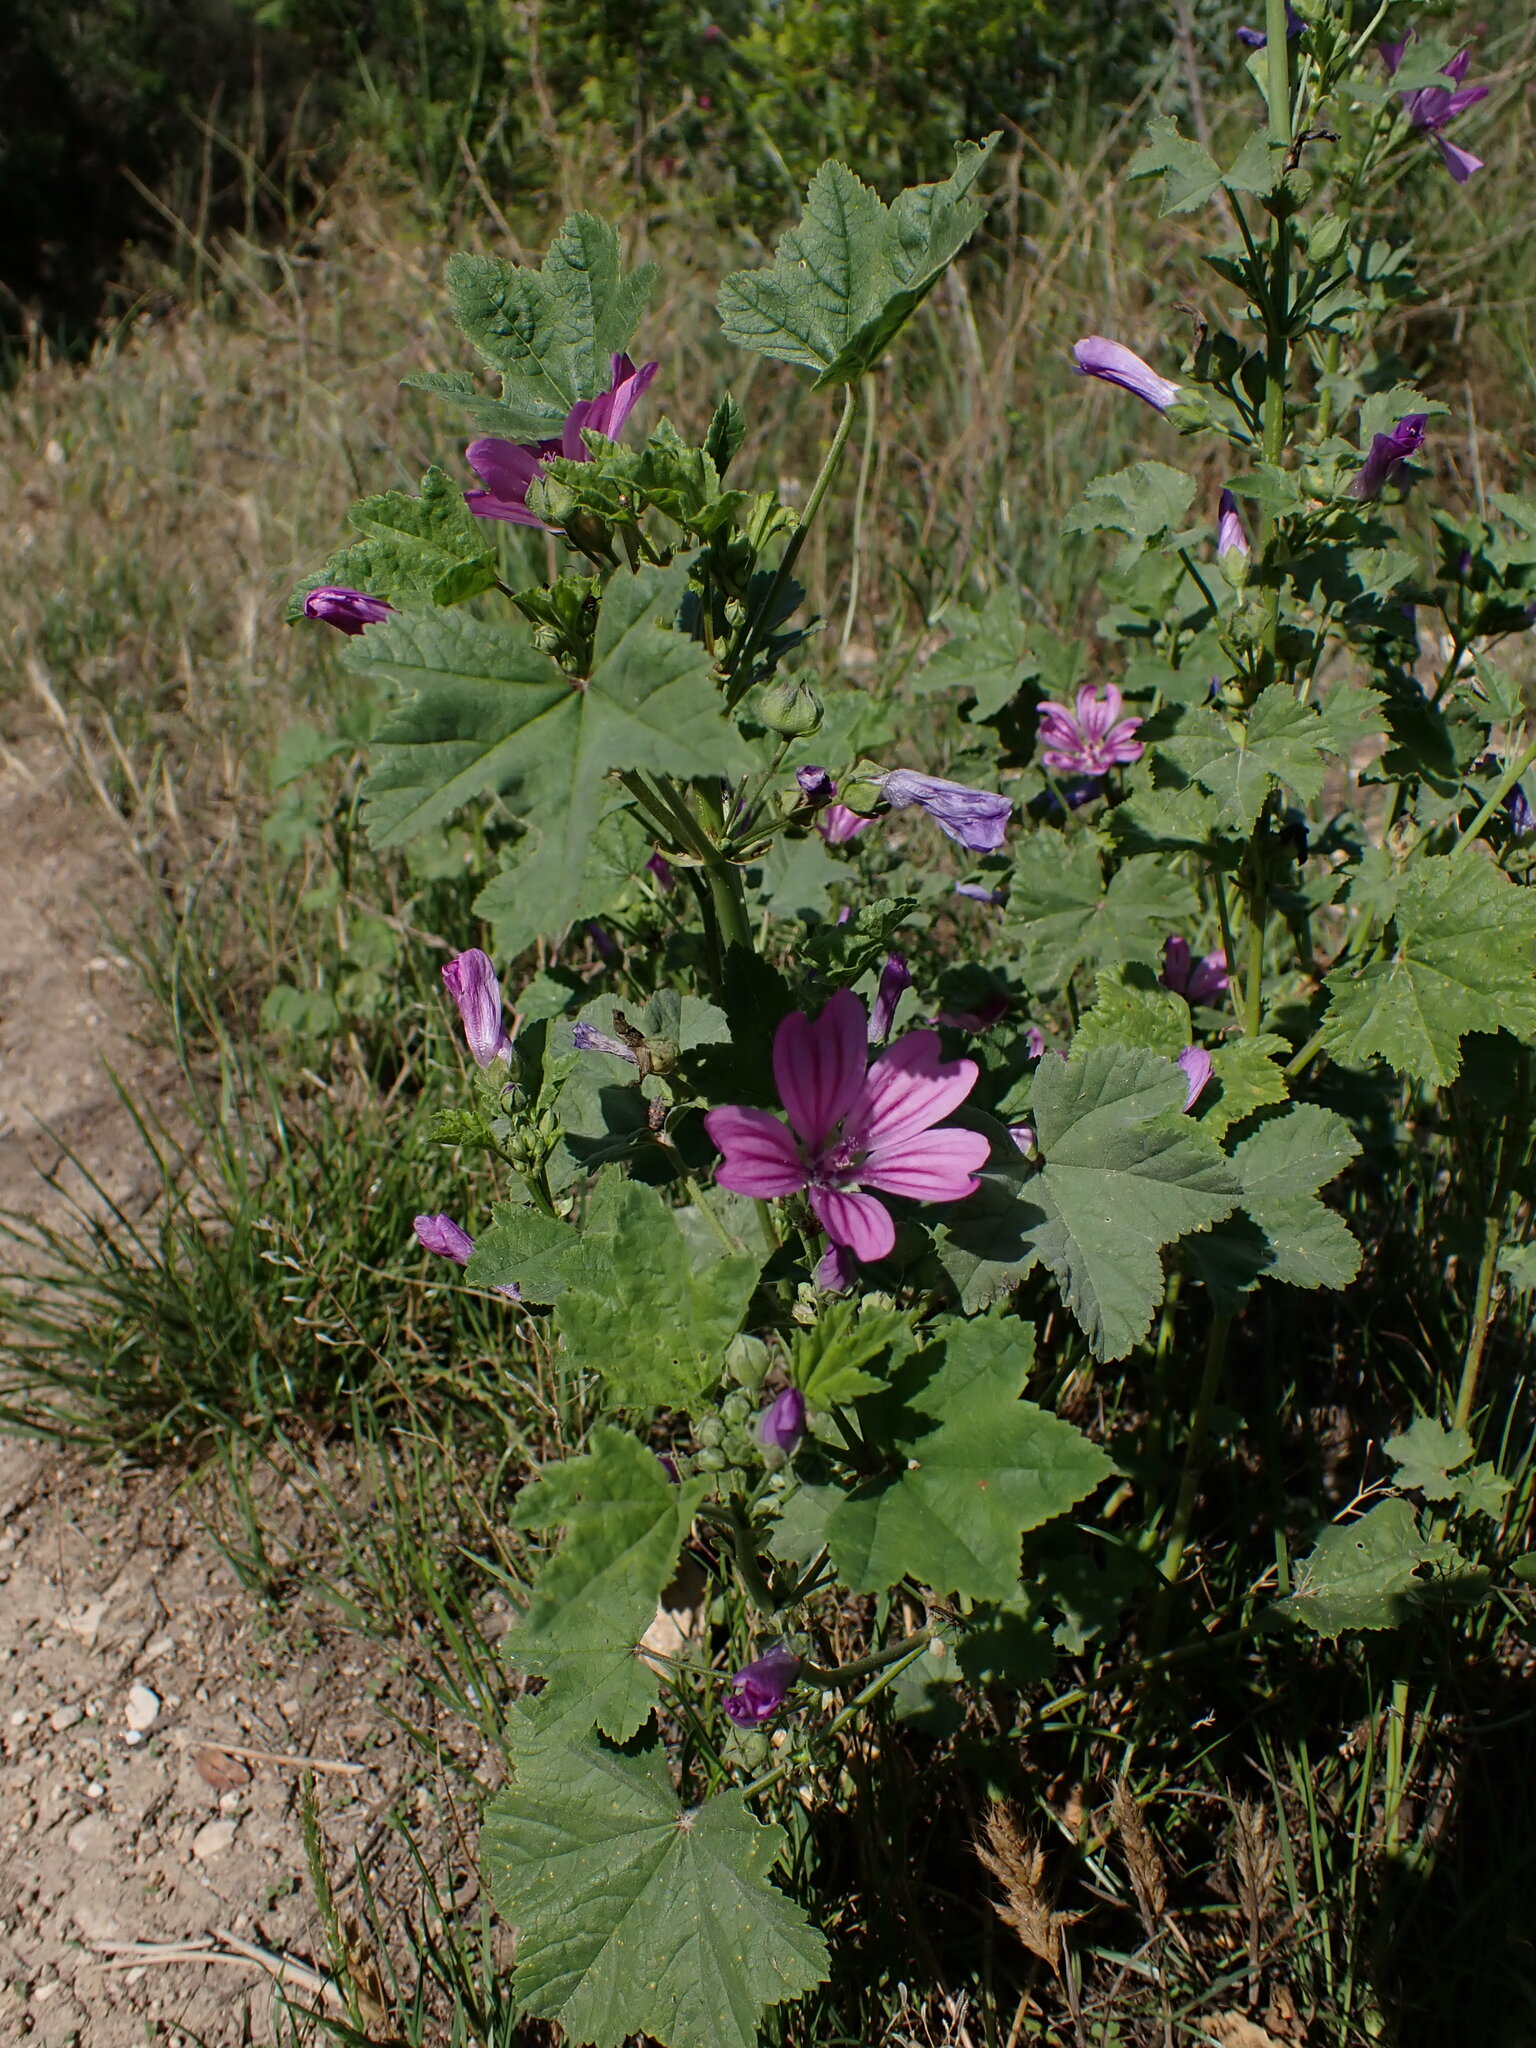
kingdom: Plantae
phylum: Tracheophyta
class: Magnoliopsida
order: Malvales
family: Malvaceae
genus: Malva
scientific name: Malva sylvestris
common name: Common mallow
